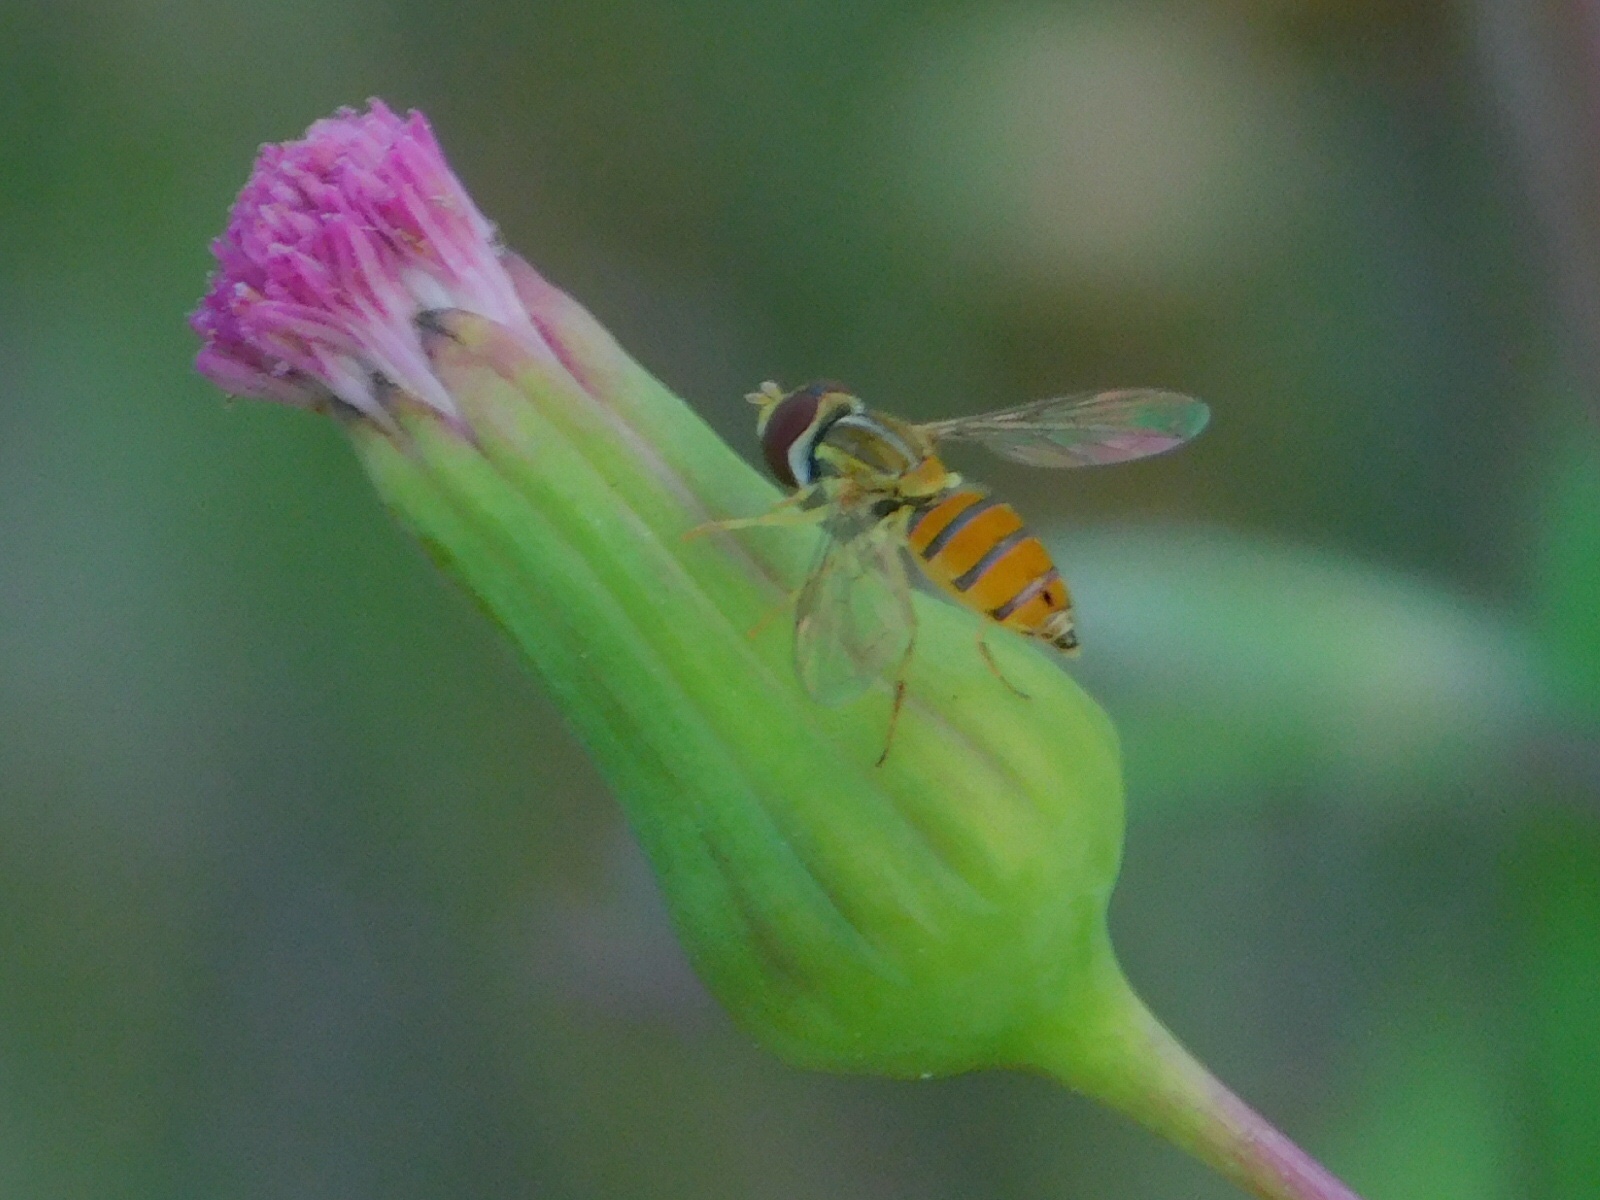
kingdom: Animalia
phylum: Arthropoda
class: Insecta
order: Diptera
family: Syrphidae
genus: Toxomerus
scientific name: Toxomerus corbis
